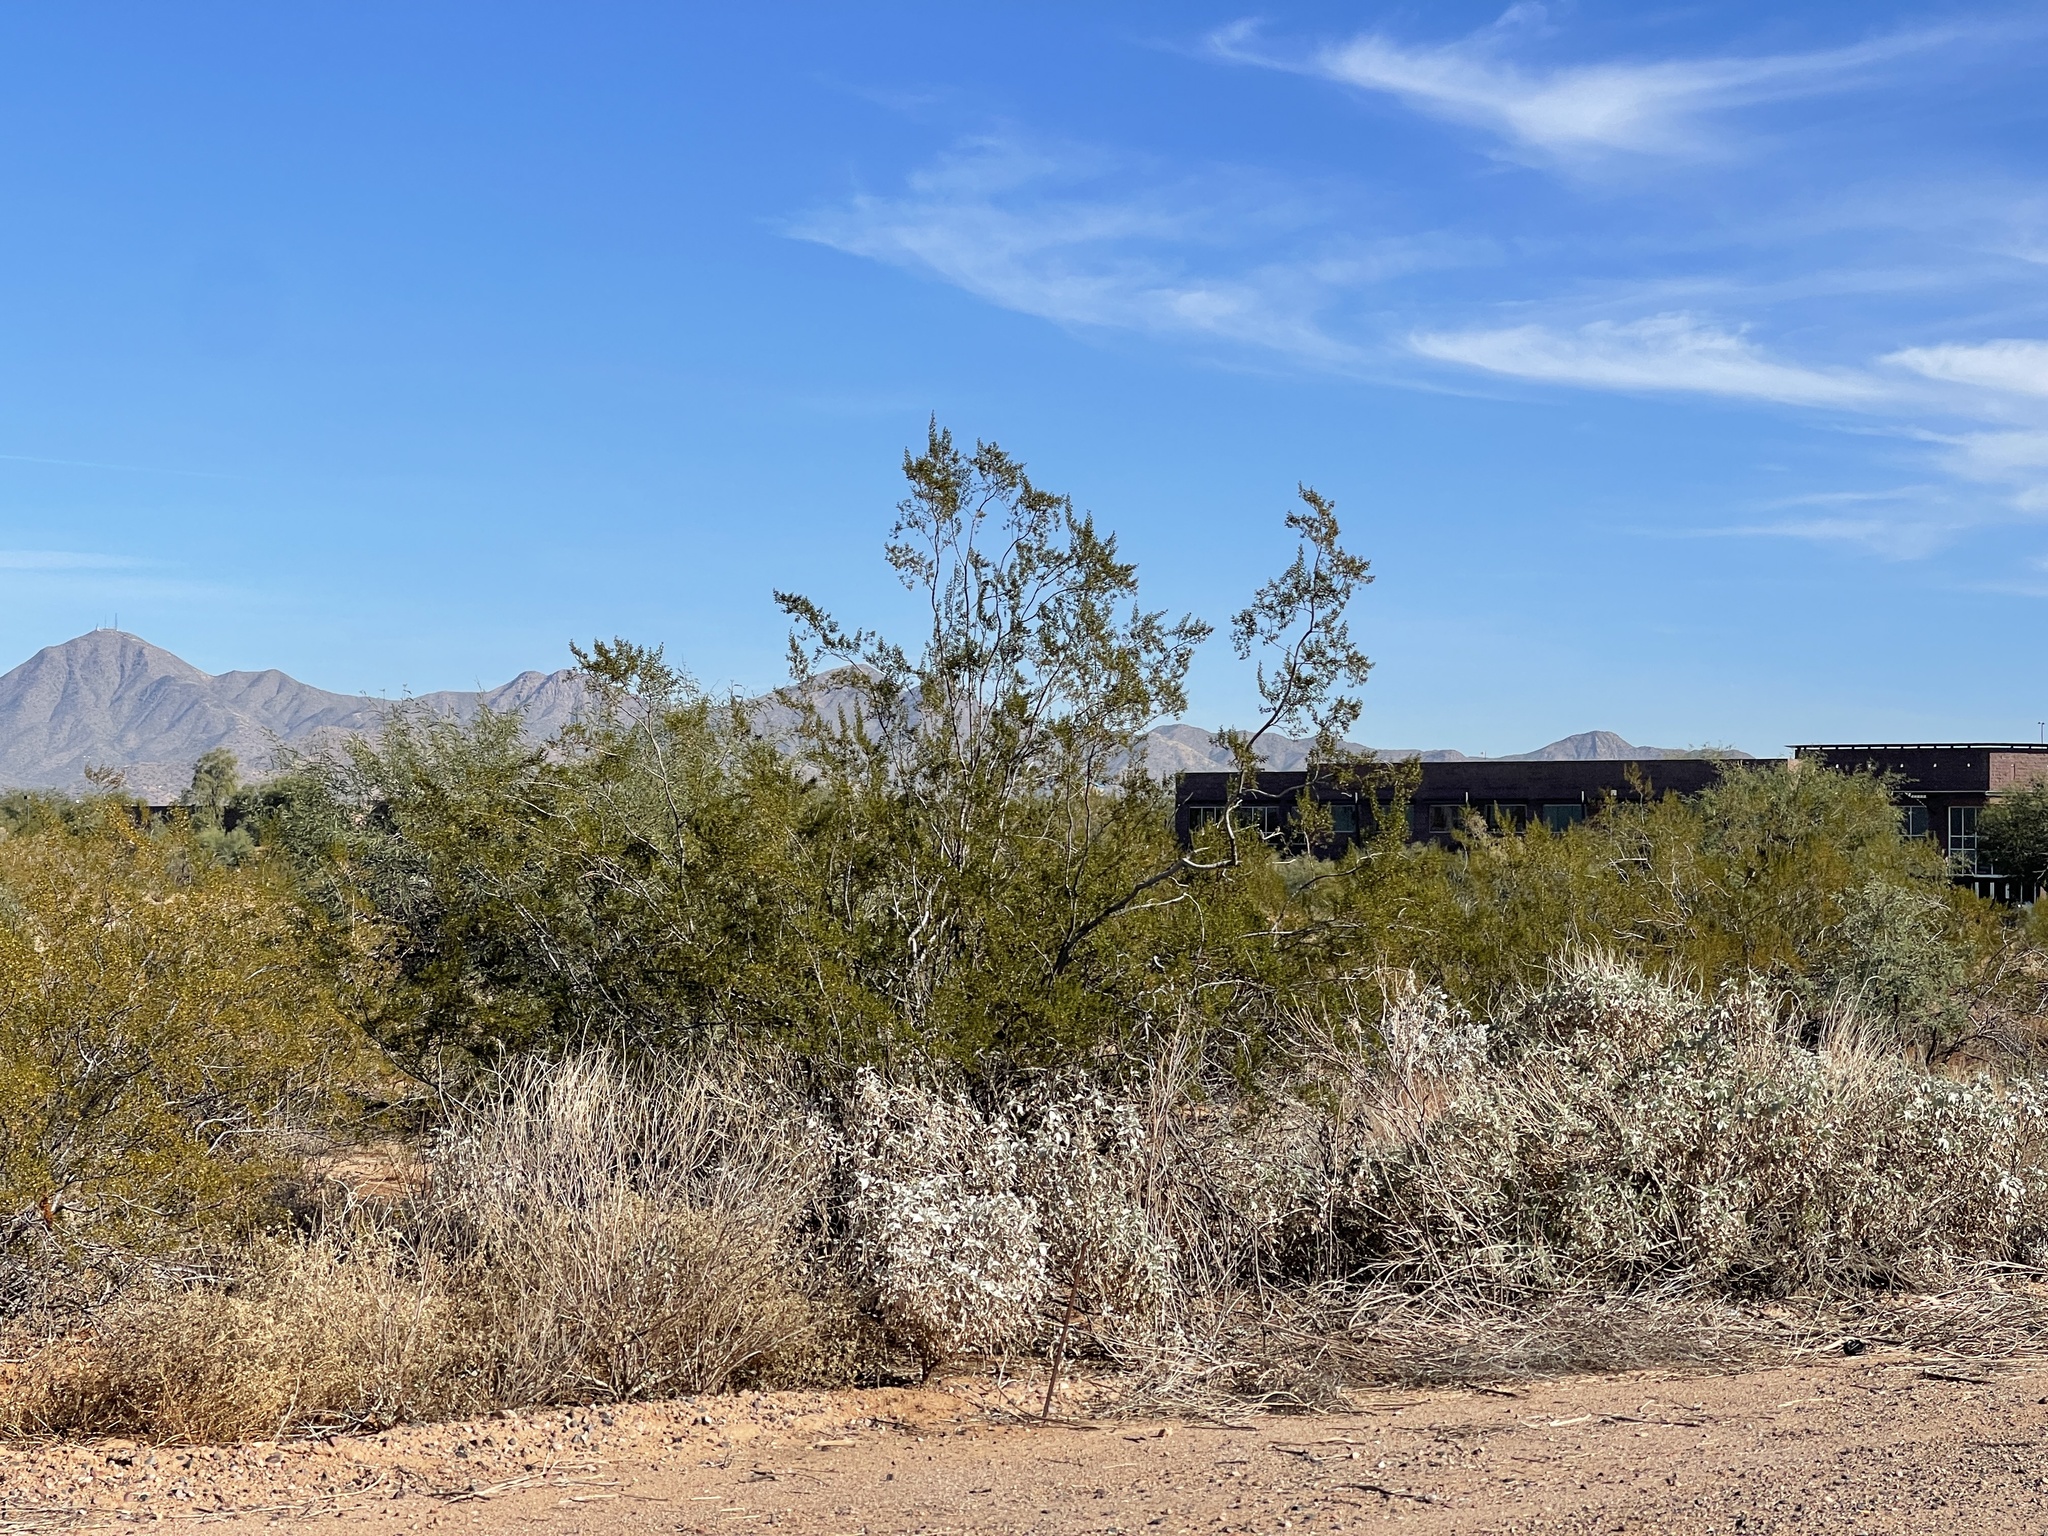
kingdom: Plantae
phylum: Tracheophyta
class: Magnoliopsida
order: Zygophyllales
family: Zygophyllaceae
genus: Larrea
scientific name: Larrea tridentata
